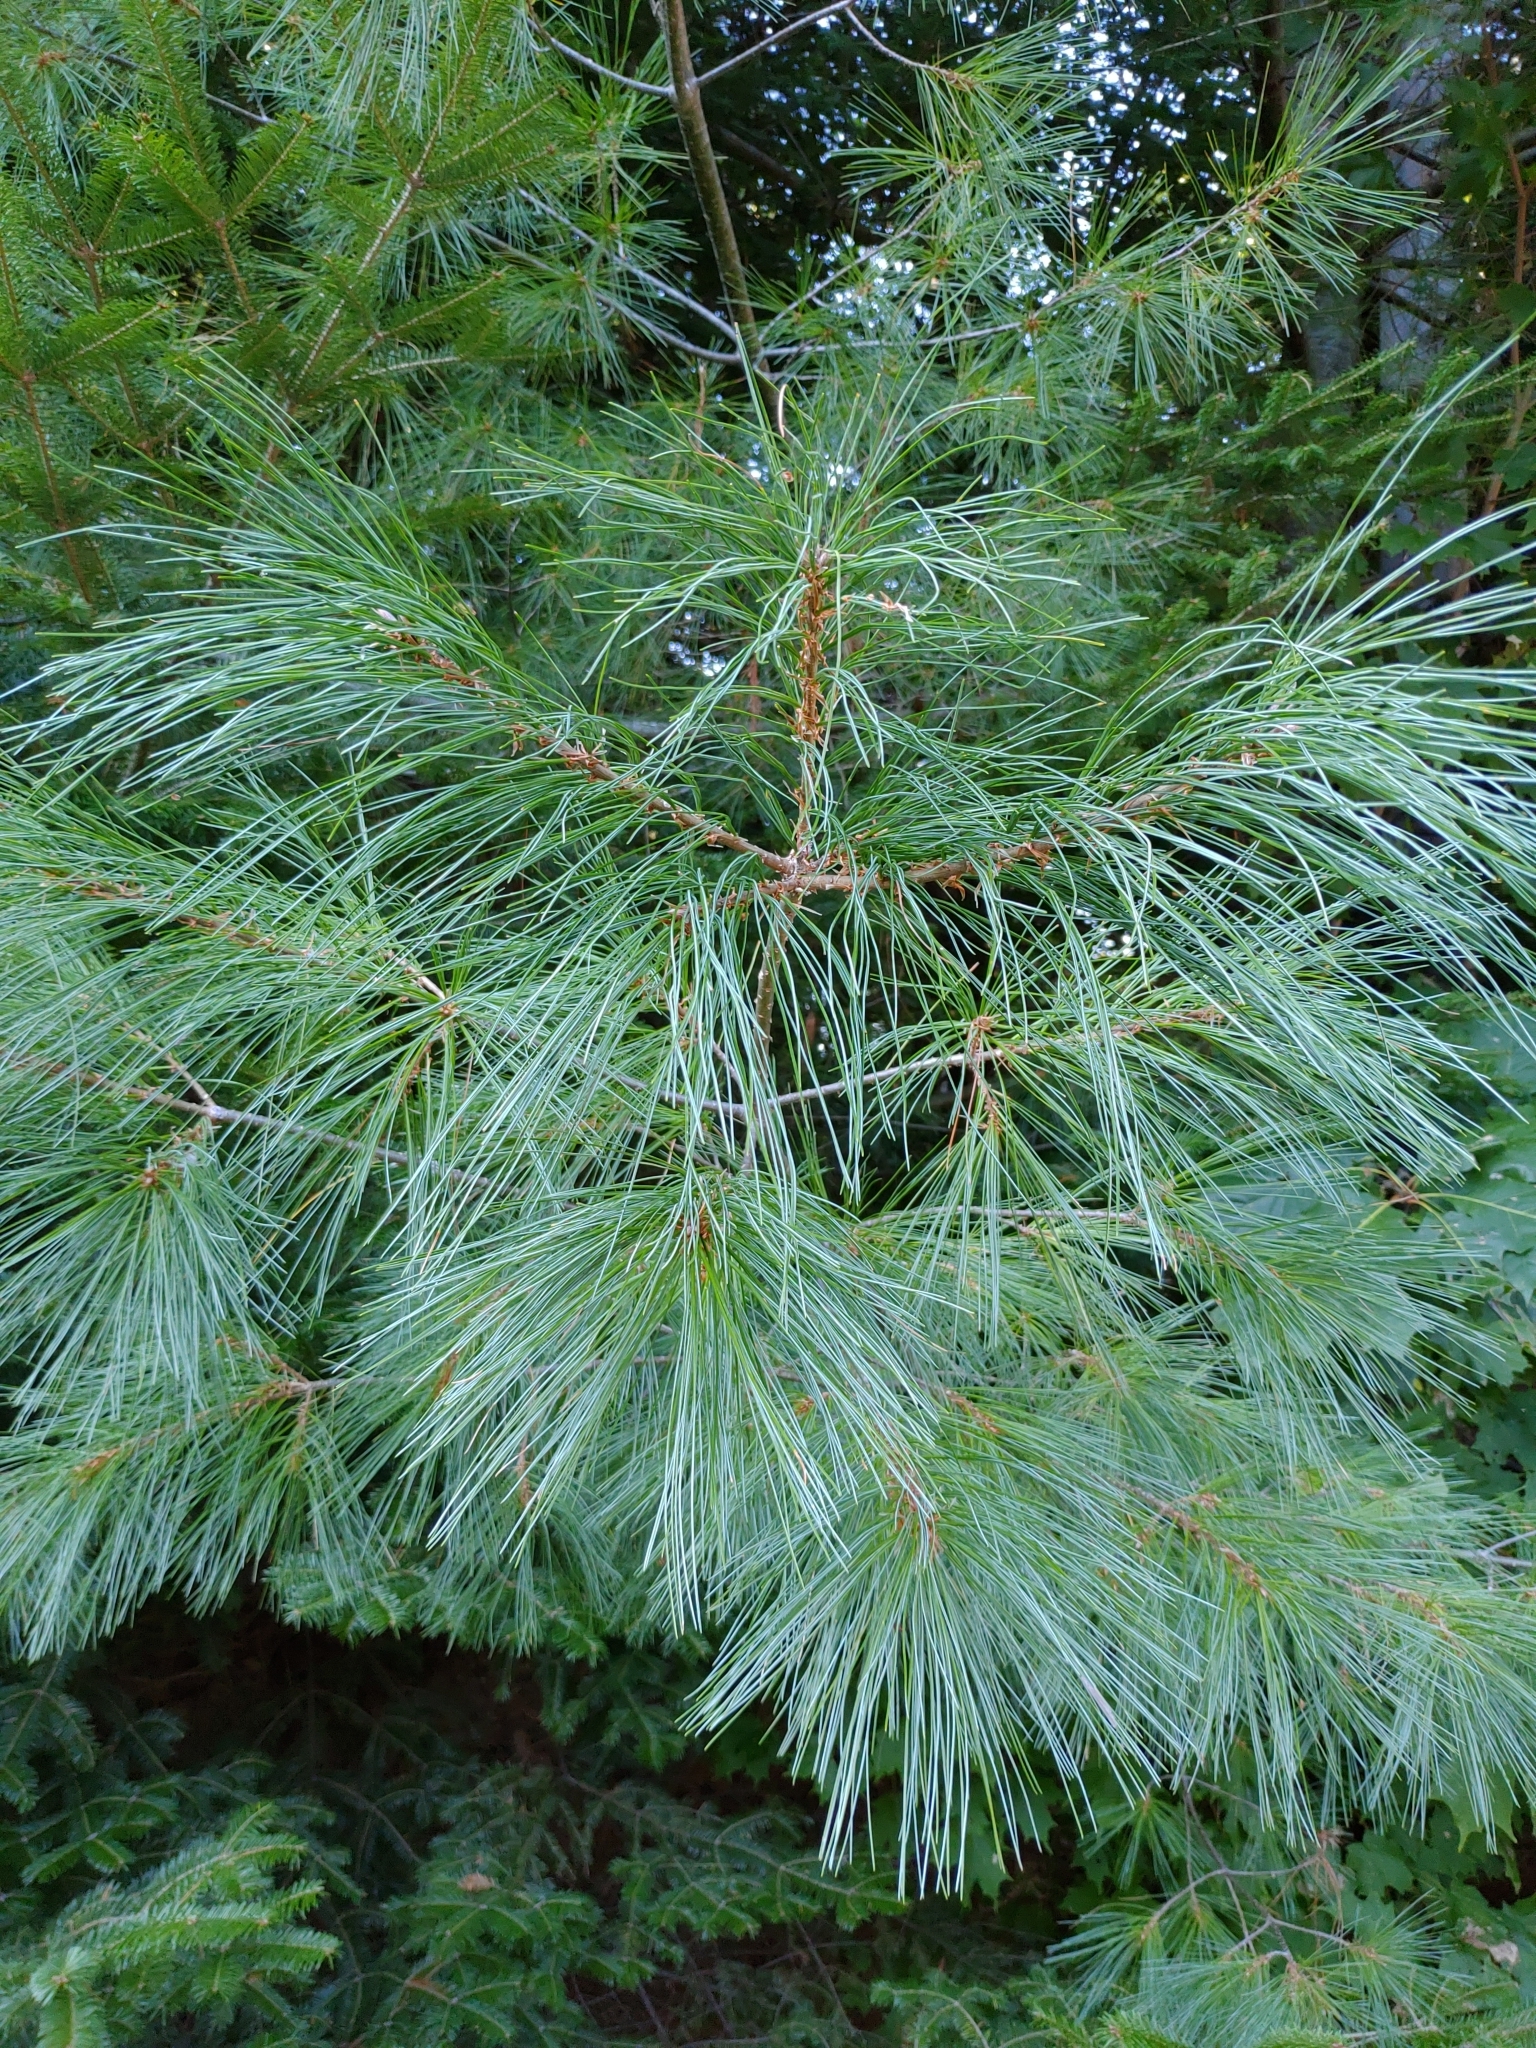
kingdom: Plantae
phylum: Tracheophyta
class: Pinopsida
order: Pinales
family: Pinaceae
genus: Pinus
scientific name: Pinus strobus
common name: Weymouth pine
